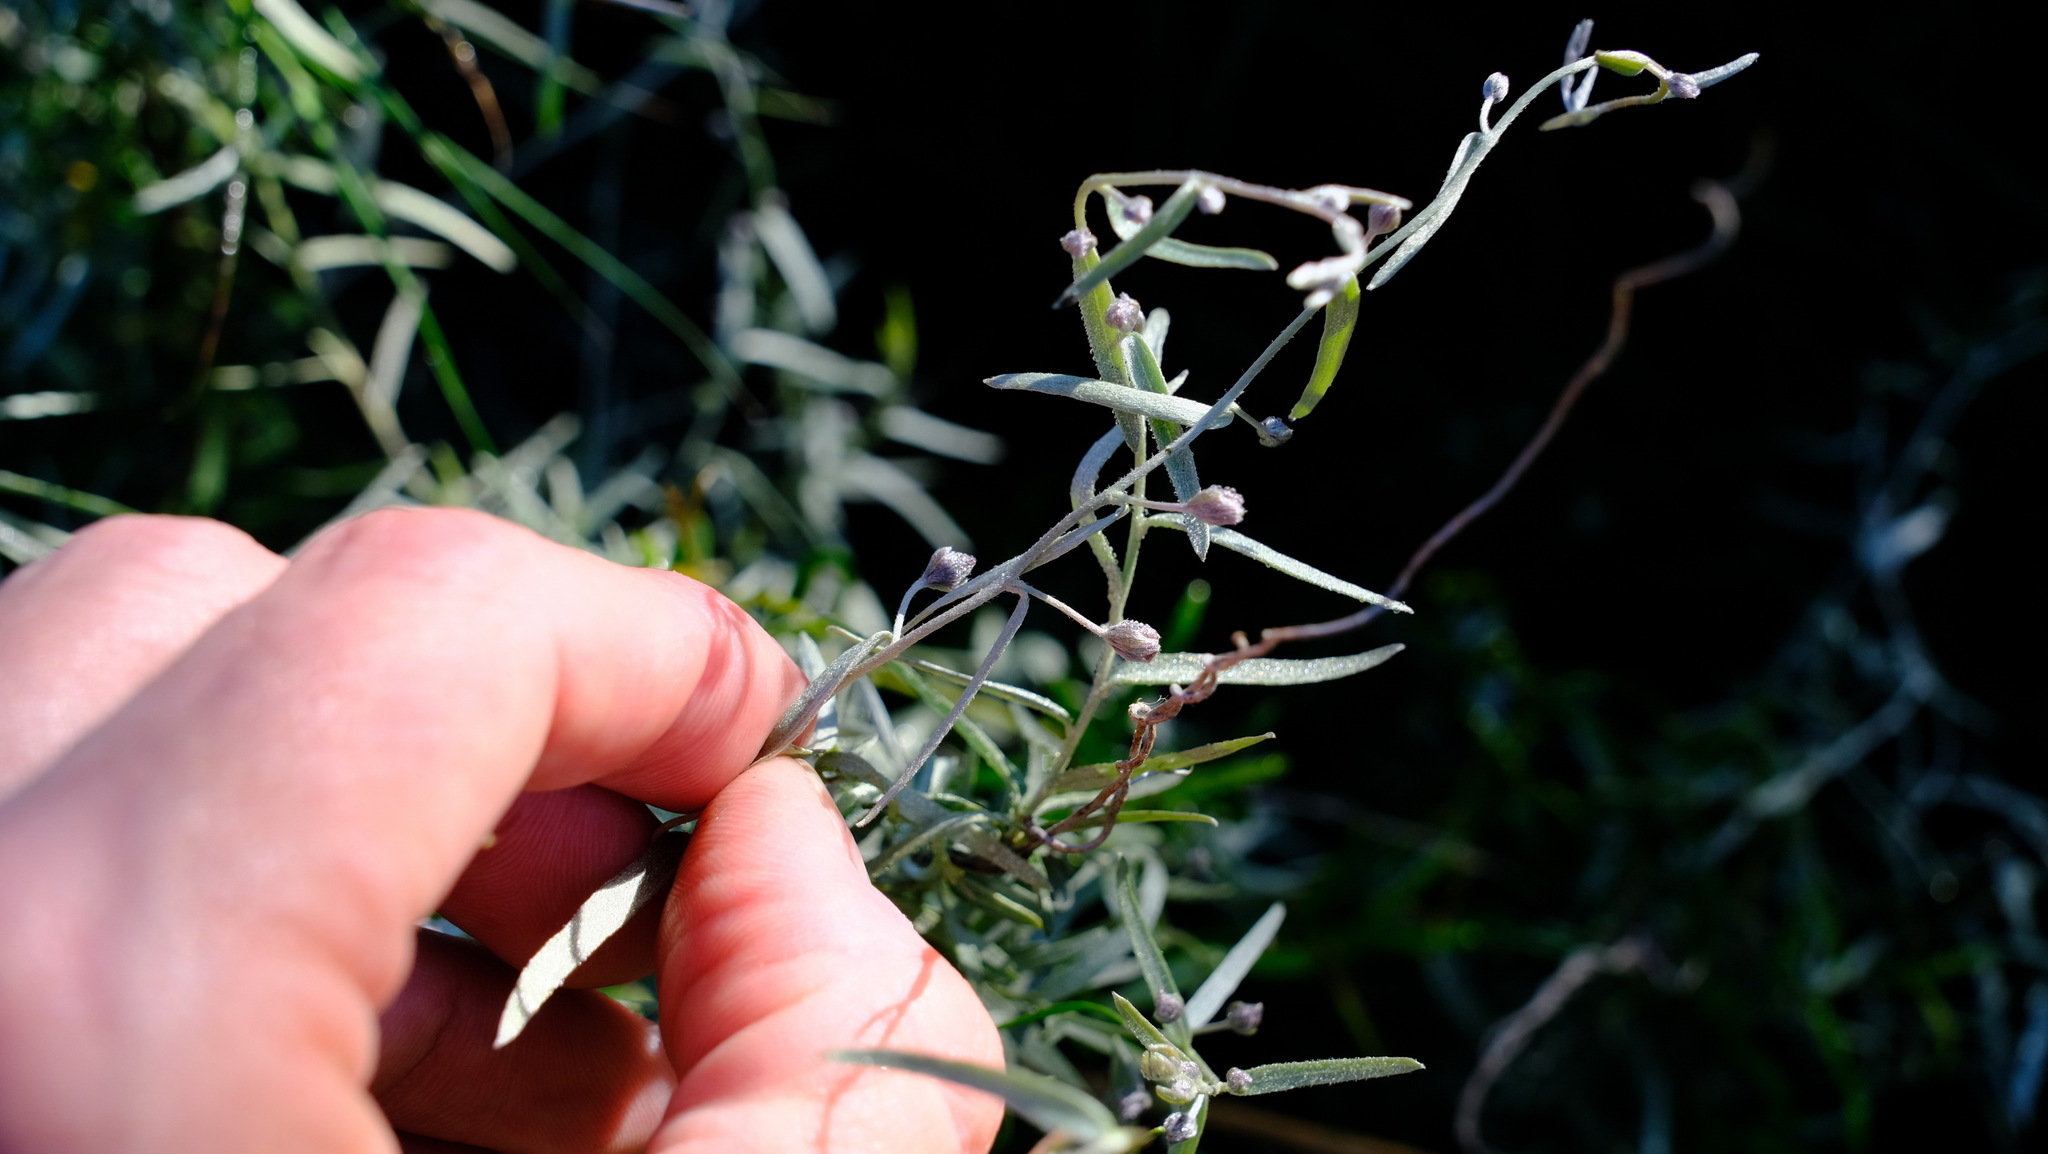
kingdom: Plantae
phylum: Tracheophyta
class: Magnoliopsida
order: Solanales
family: Convolvulaceae
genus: Duperreya
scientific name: Duperreya sericea
